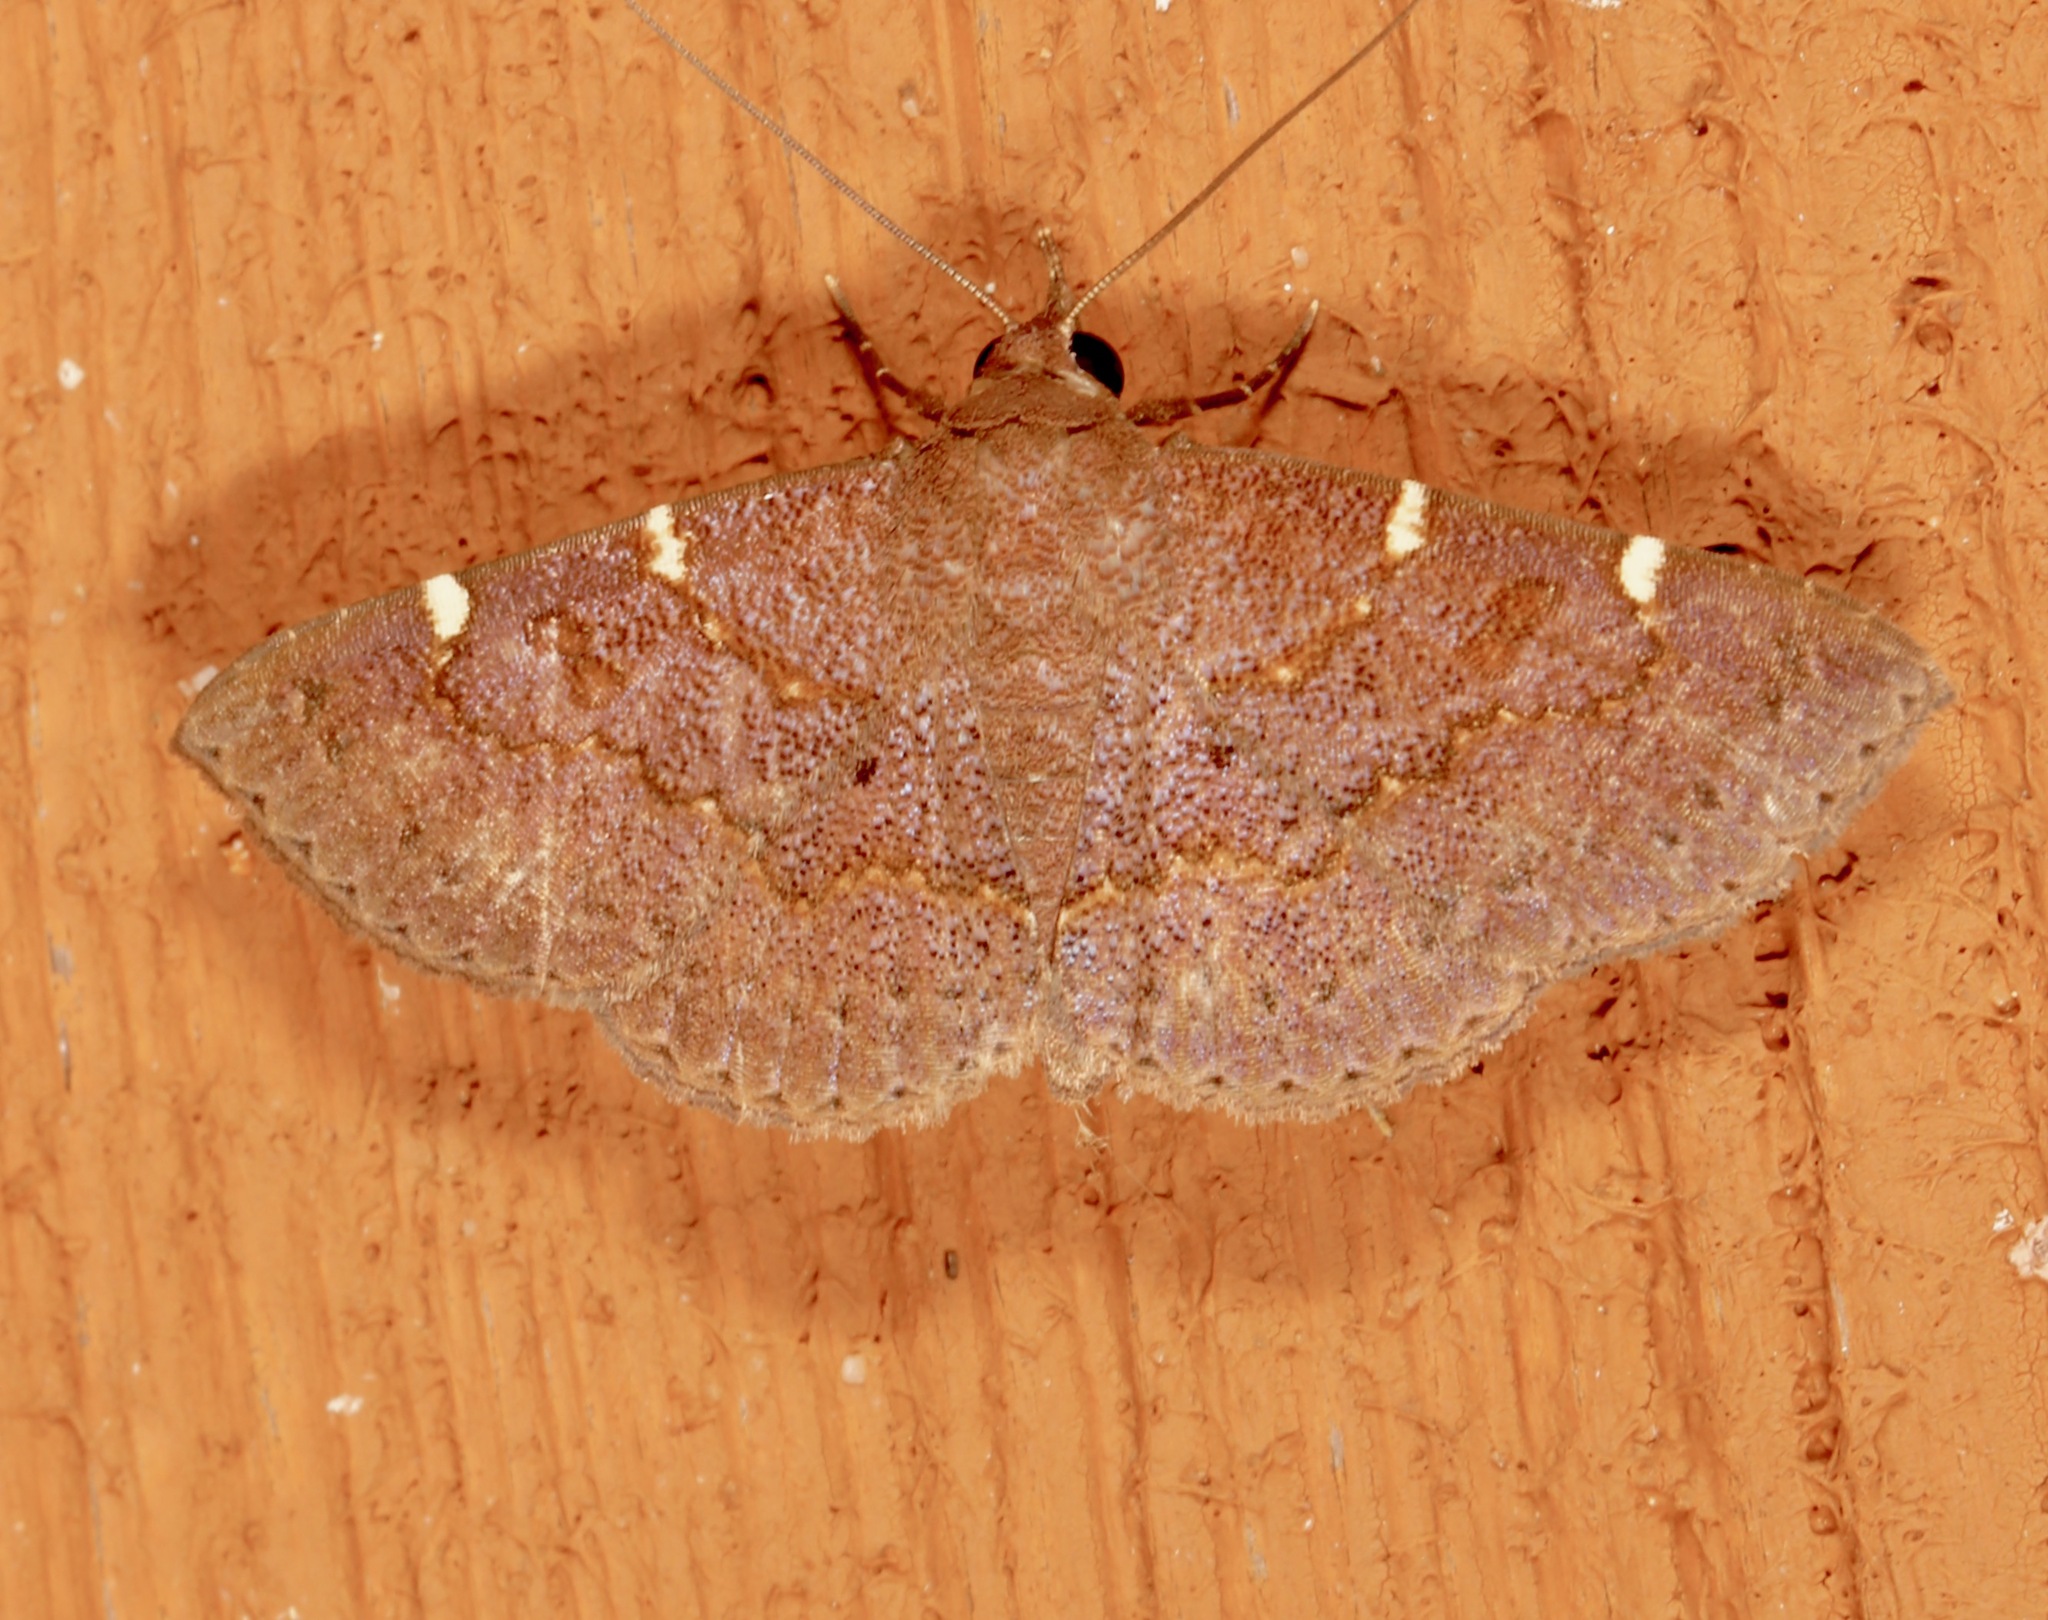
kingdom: Animalia
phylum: Arthropoda
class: Insecta
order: Lepidoptera
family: Erebidae
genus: Antiblemma
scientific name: Antiblemma perva
